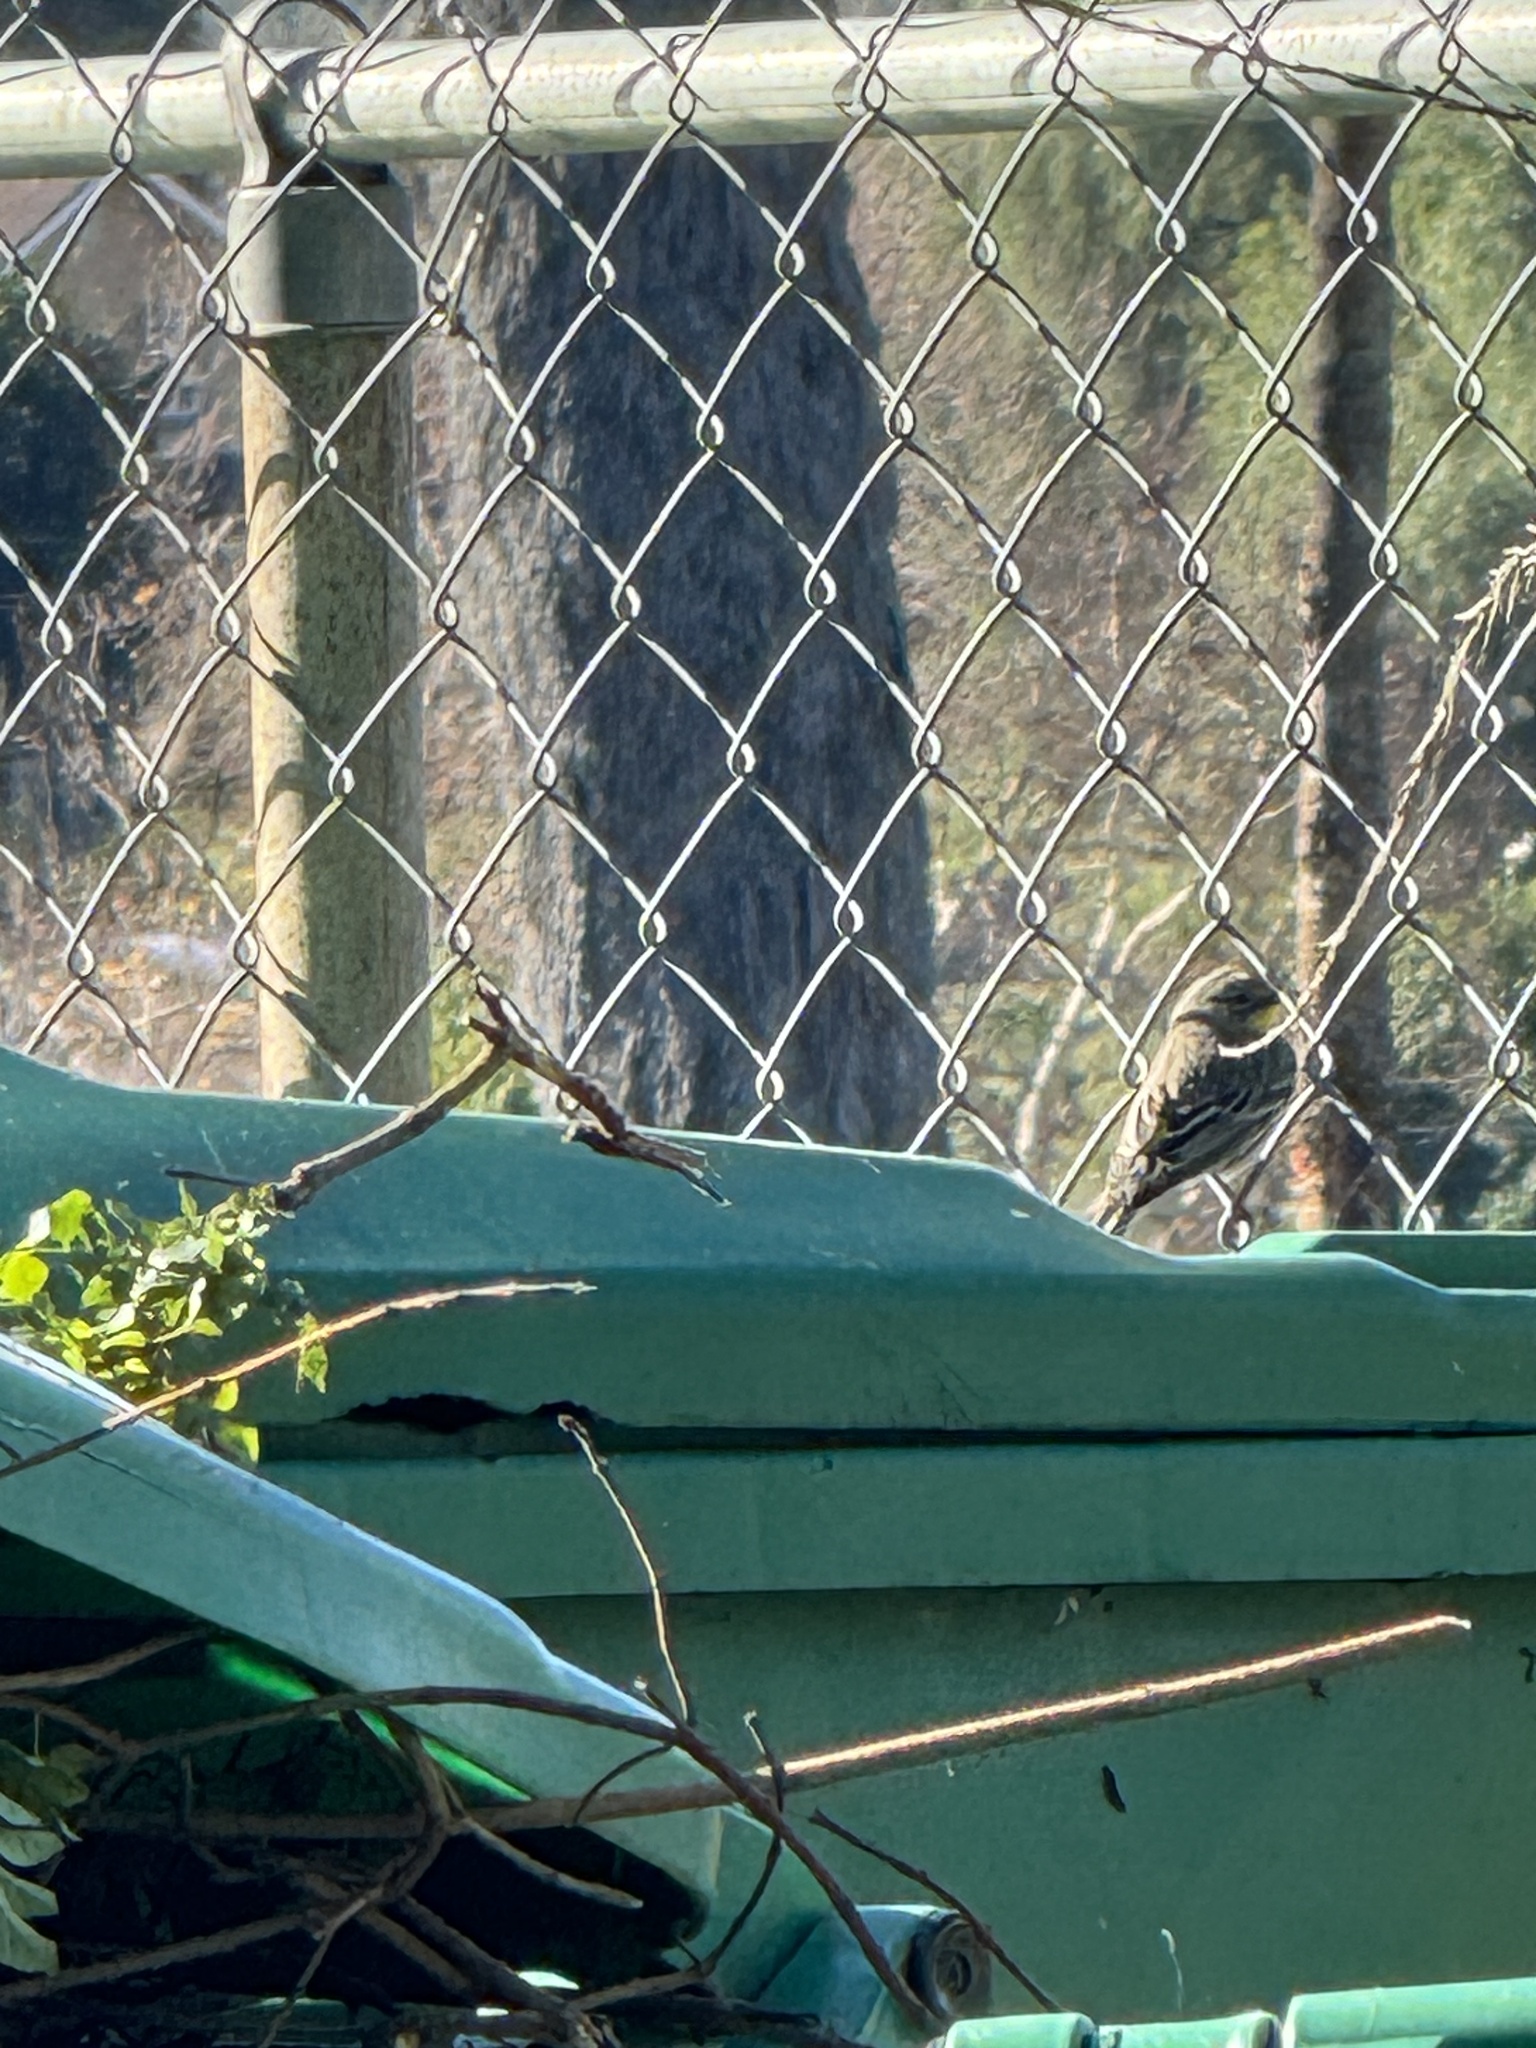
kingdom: Animalia
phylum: Chordata
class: Aves
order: Passeriformes
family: Parulidae
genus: Setophaga
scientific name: Setophaga coronata
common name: Myrtle warbler
